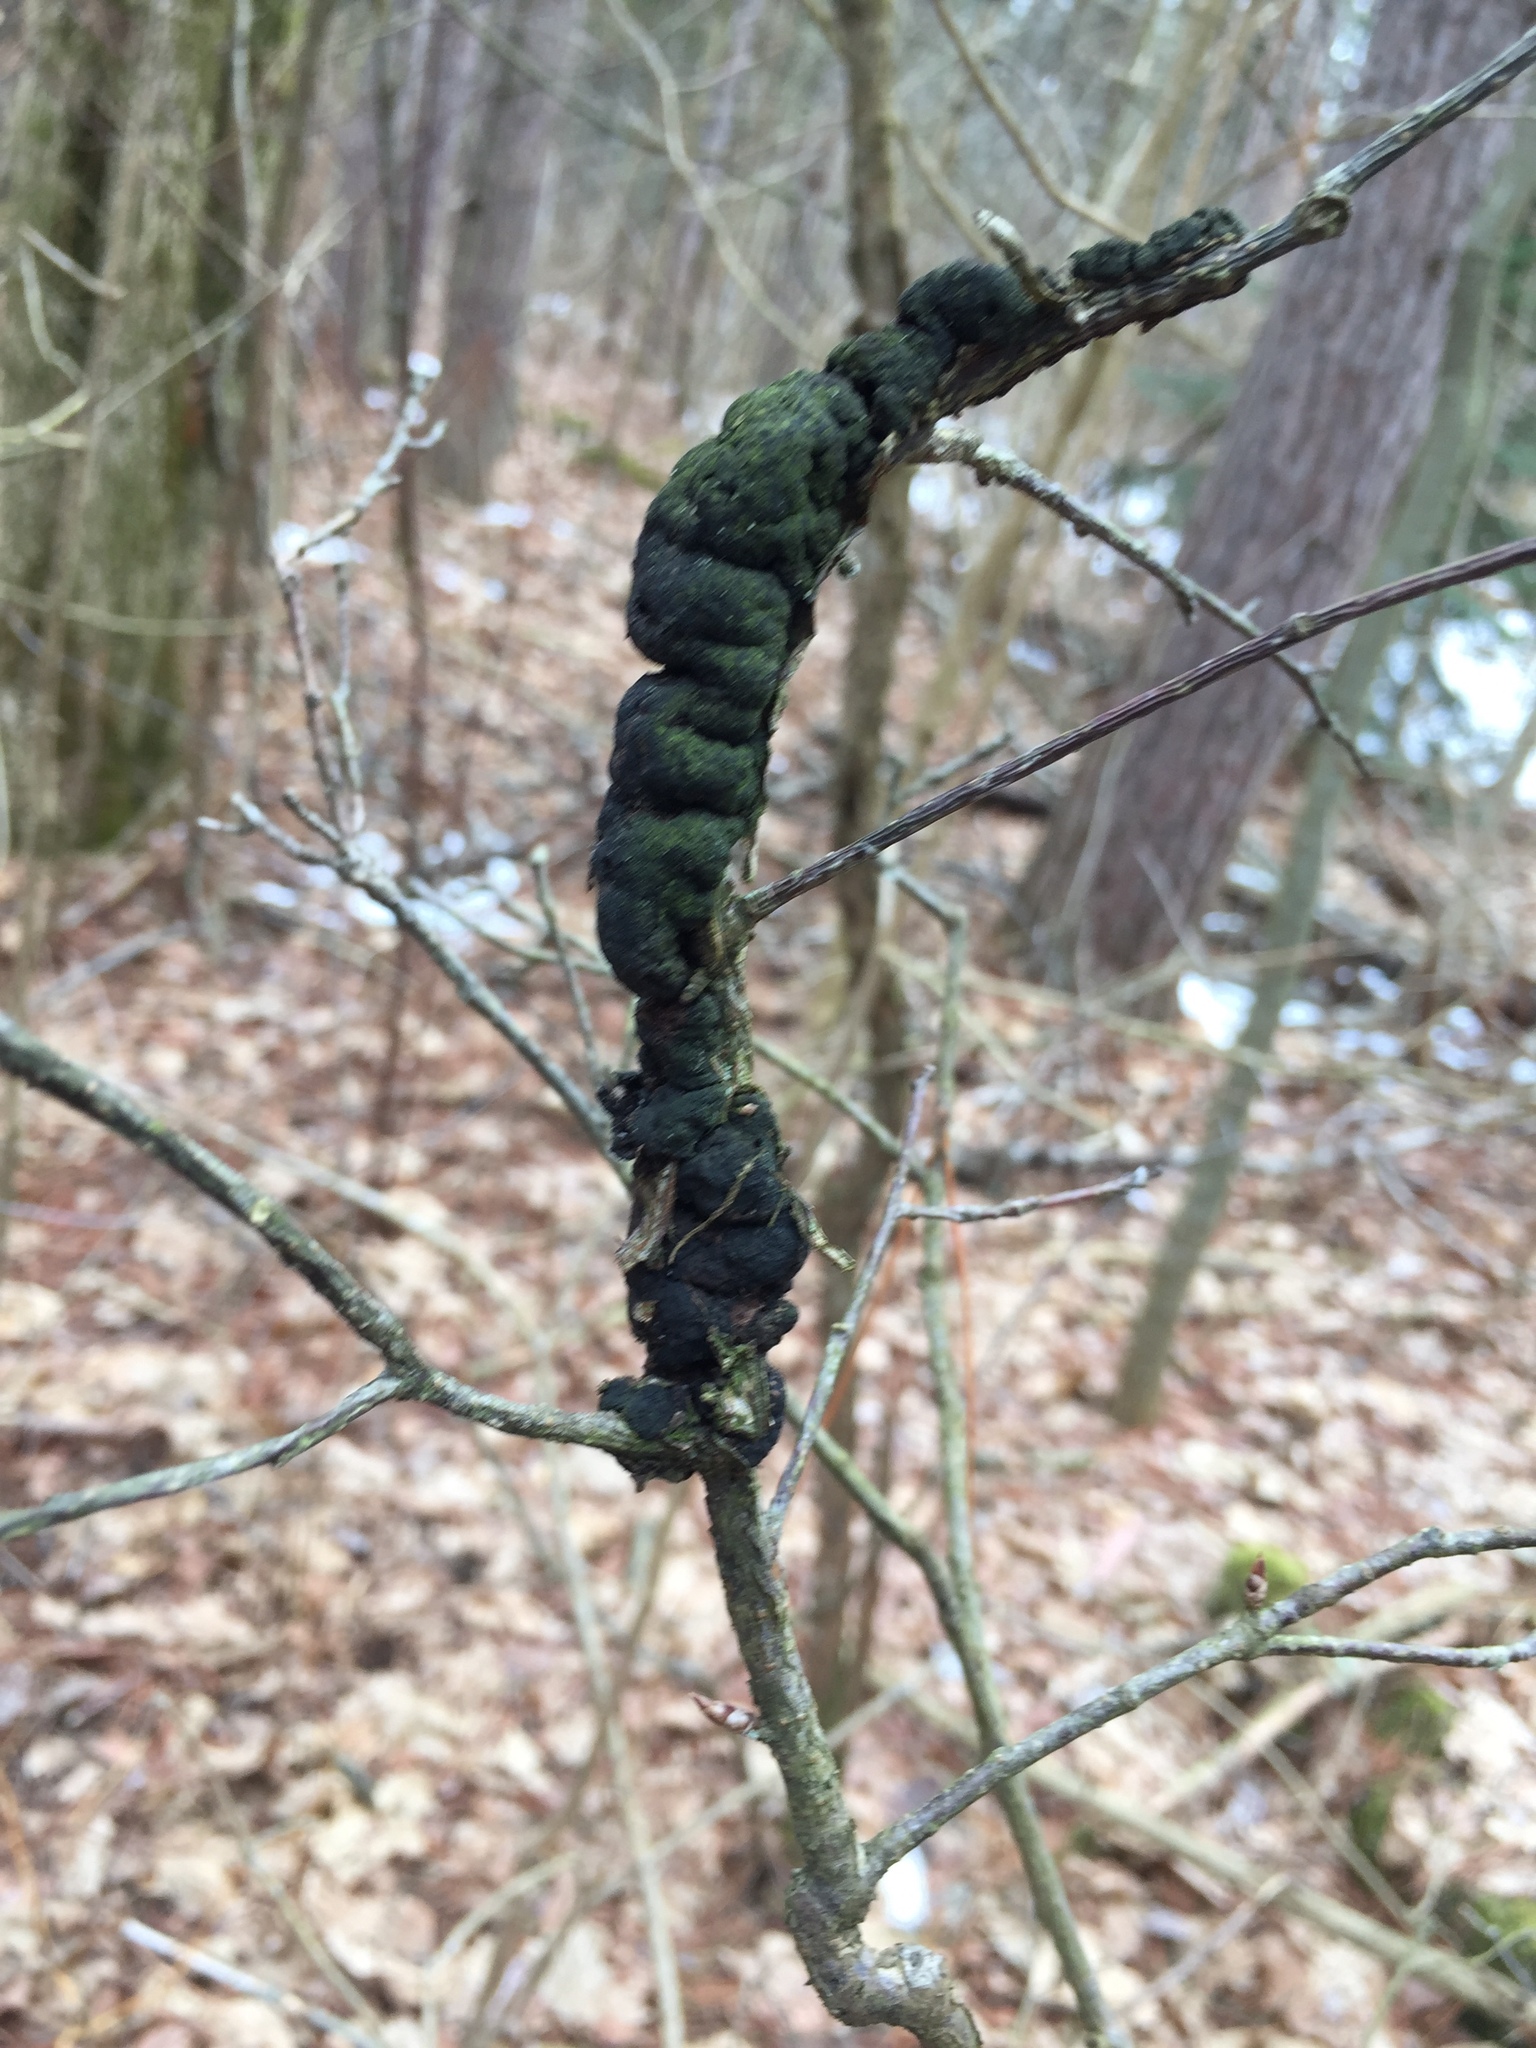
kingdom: Fungi
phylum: Ascomycota
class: Dothideomycetes
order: Venturiales
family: Venturiaceae
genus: Apiosporina
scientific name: Apiosporina morbosa
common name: Black knot
